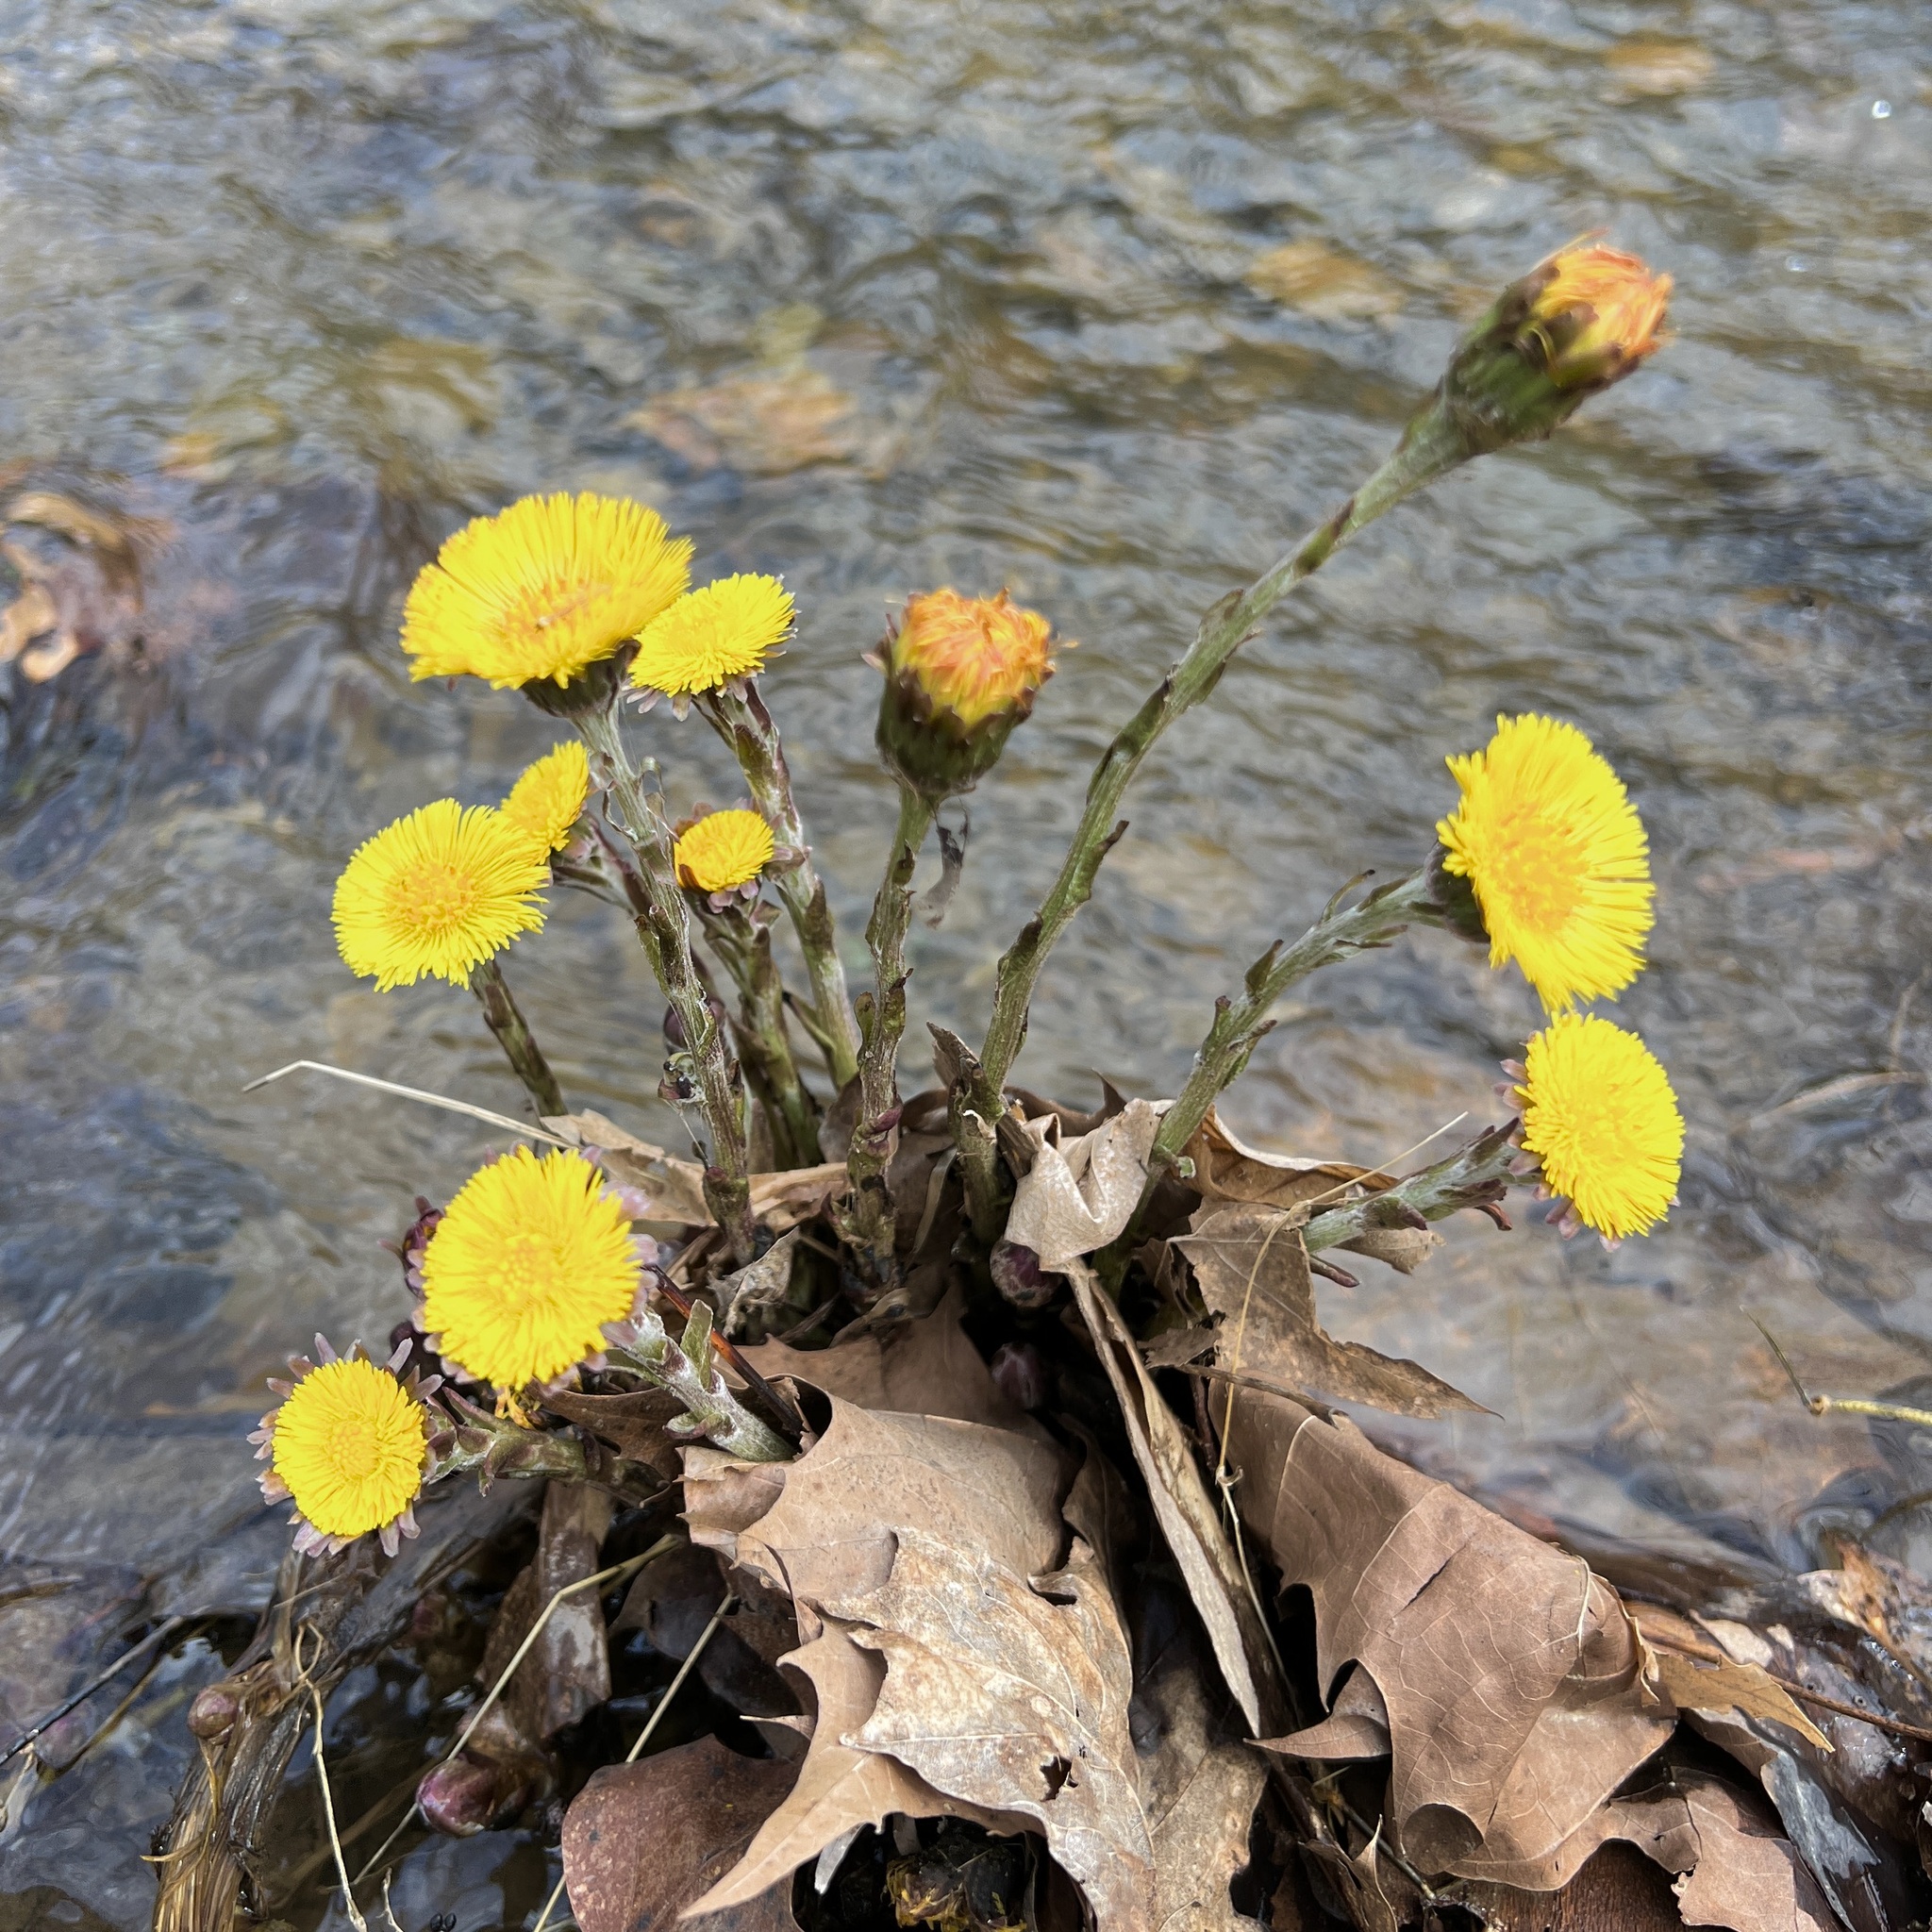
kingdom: Plantae
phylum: Tracheophyta
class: Magnoliopsida
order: Asterales
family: Asteraceae
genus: Tussilago
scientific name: Tussilago farfara
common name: Coltsfoot
